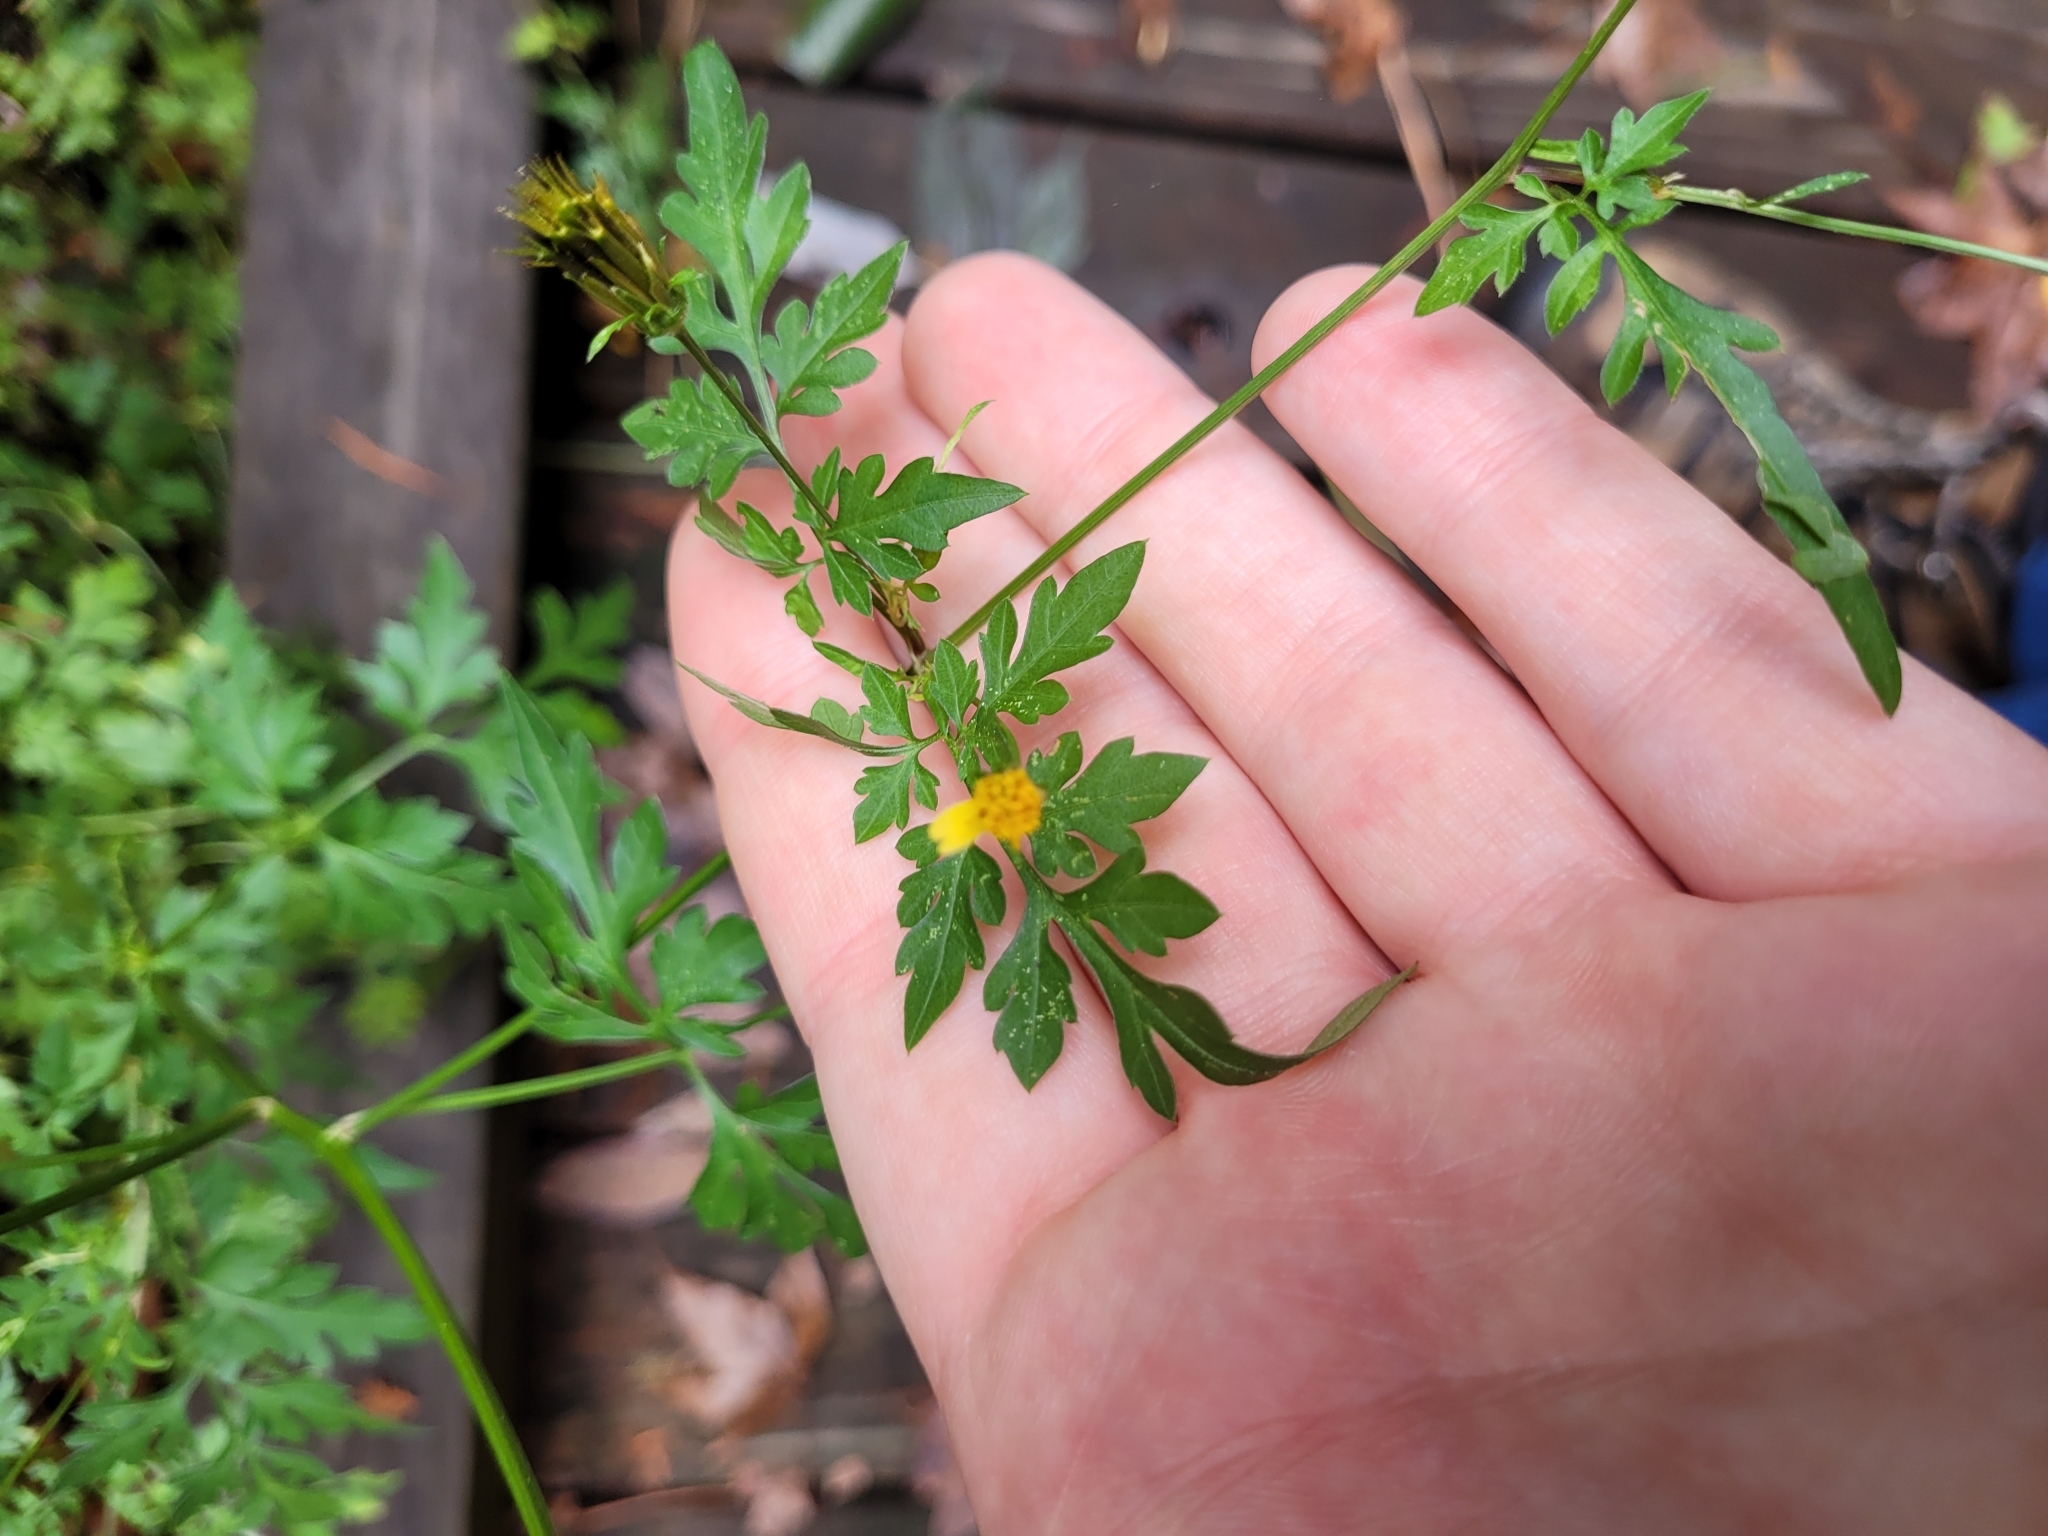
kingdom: Plantae
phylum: Tracheophyta
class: Magnoliopsida
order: Asterales
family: Asteraceae
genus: Bidens
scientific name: Bidens bipinnata
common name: Spanish-needles
